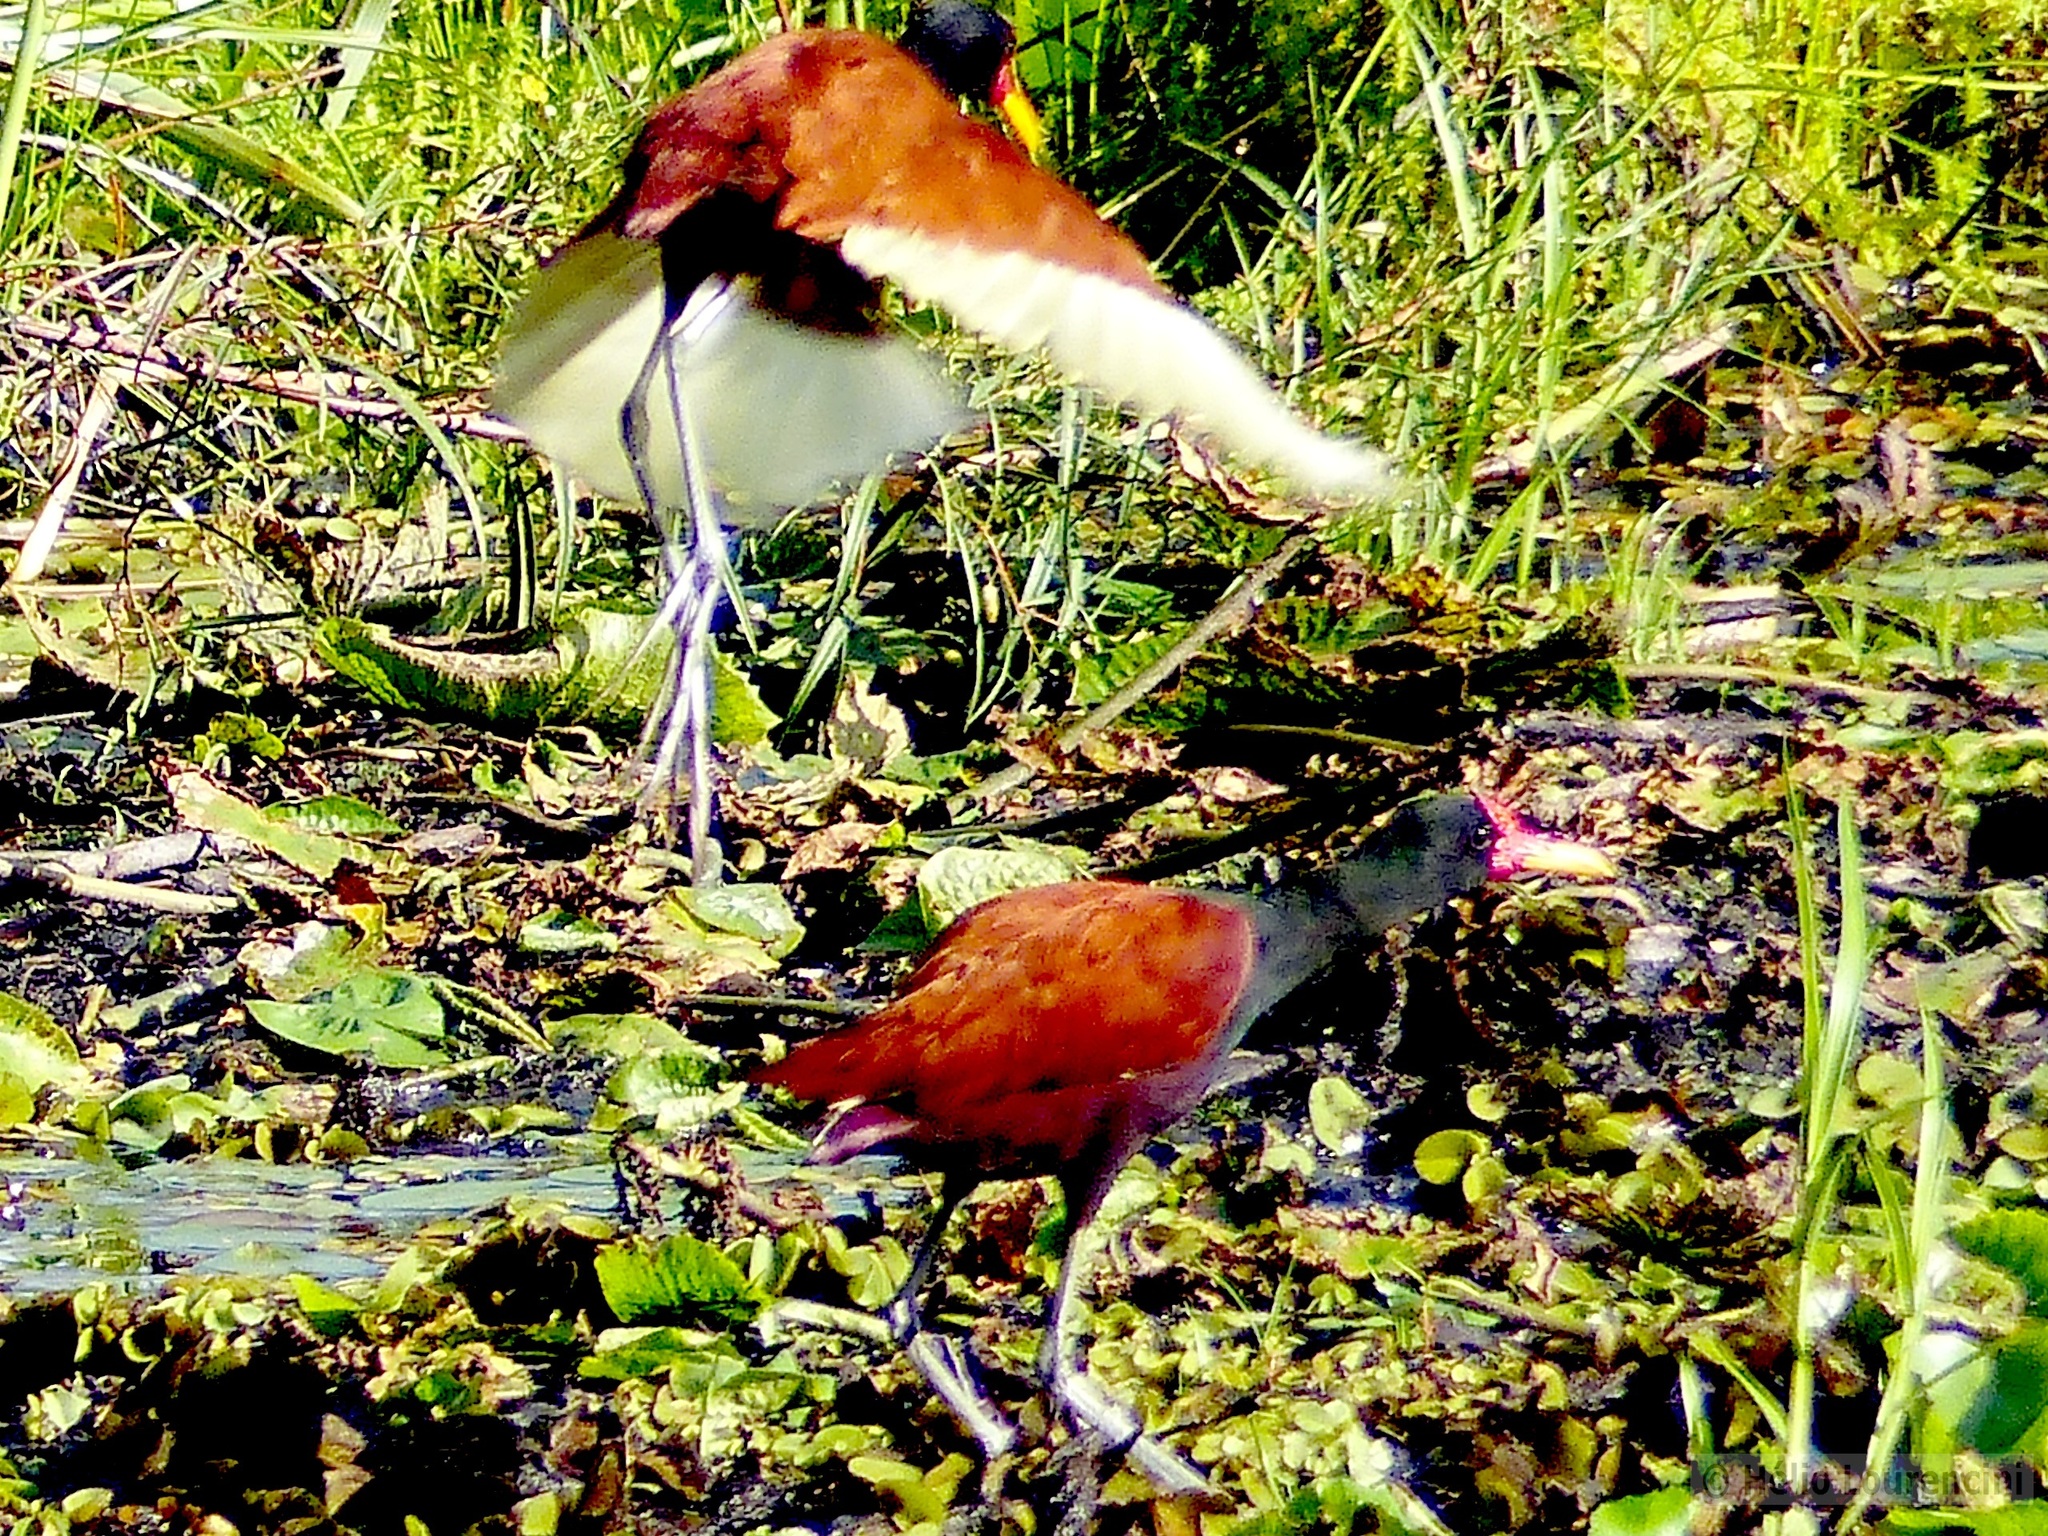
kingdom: Animalia
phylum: Chordata
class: Aves
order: Charadriiformes
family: Jacanidae
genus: Jacana
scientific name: Jacana jacana
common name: Wattled jacana
